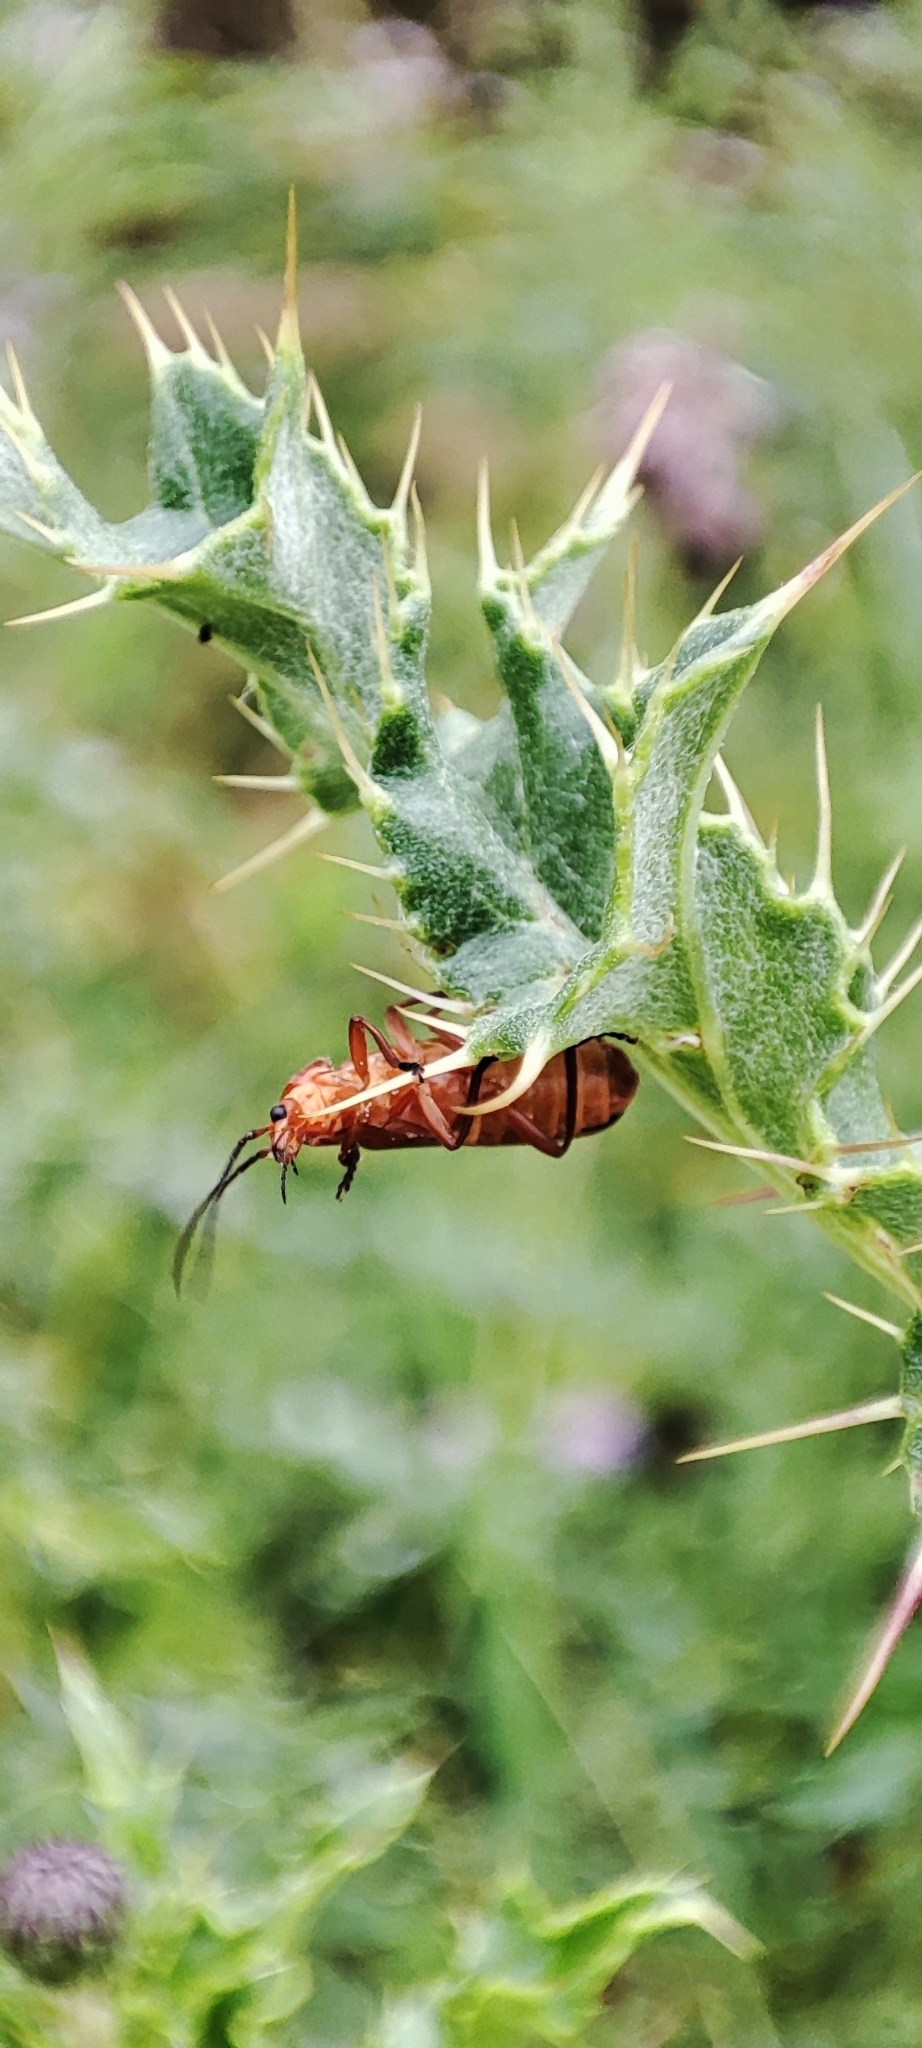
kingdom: Animalia
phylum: Arthropoda
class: Insecta
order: Coleoptera
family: Cantharidae
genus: Rhagonycha
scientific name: Rhagonycha fulva
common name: Common red soldier beetle
